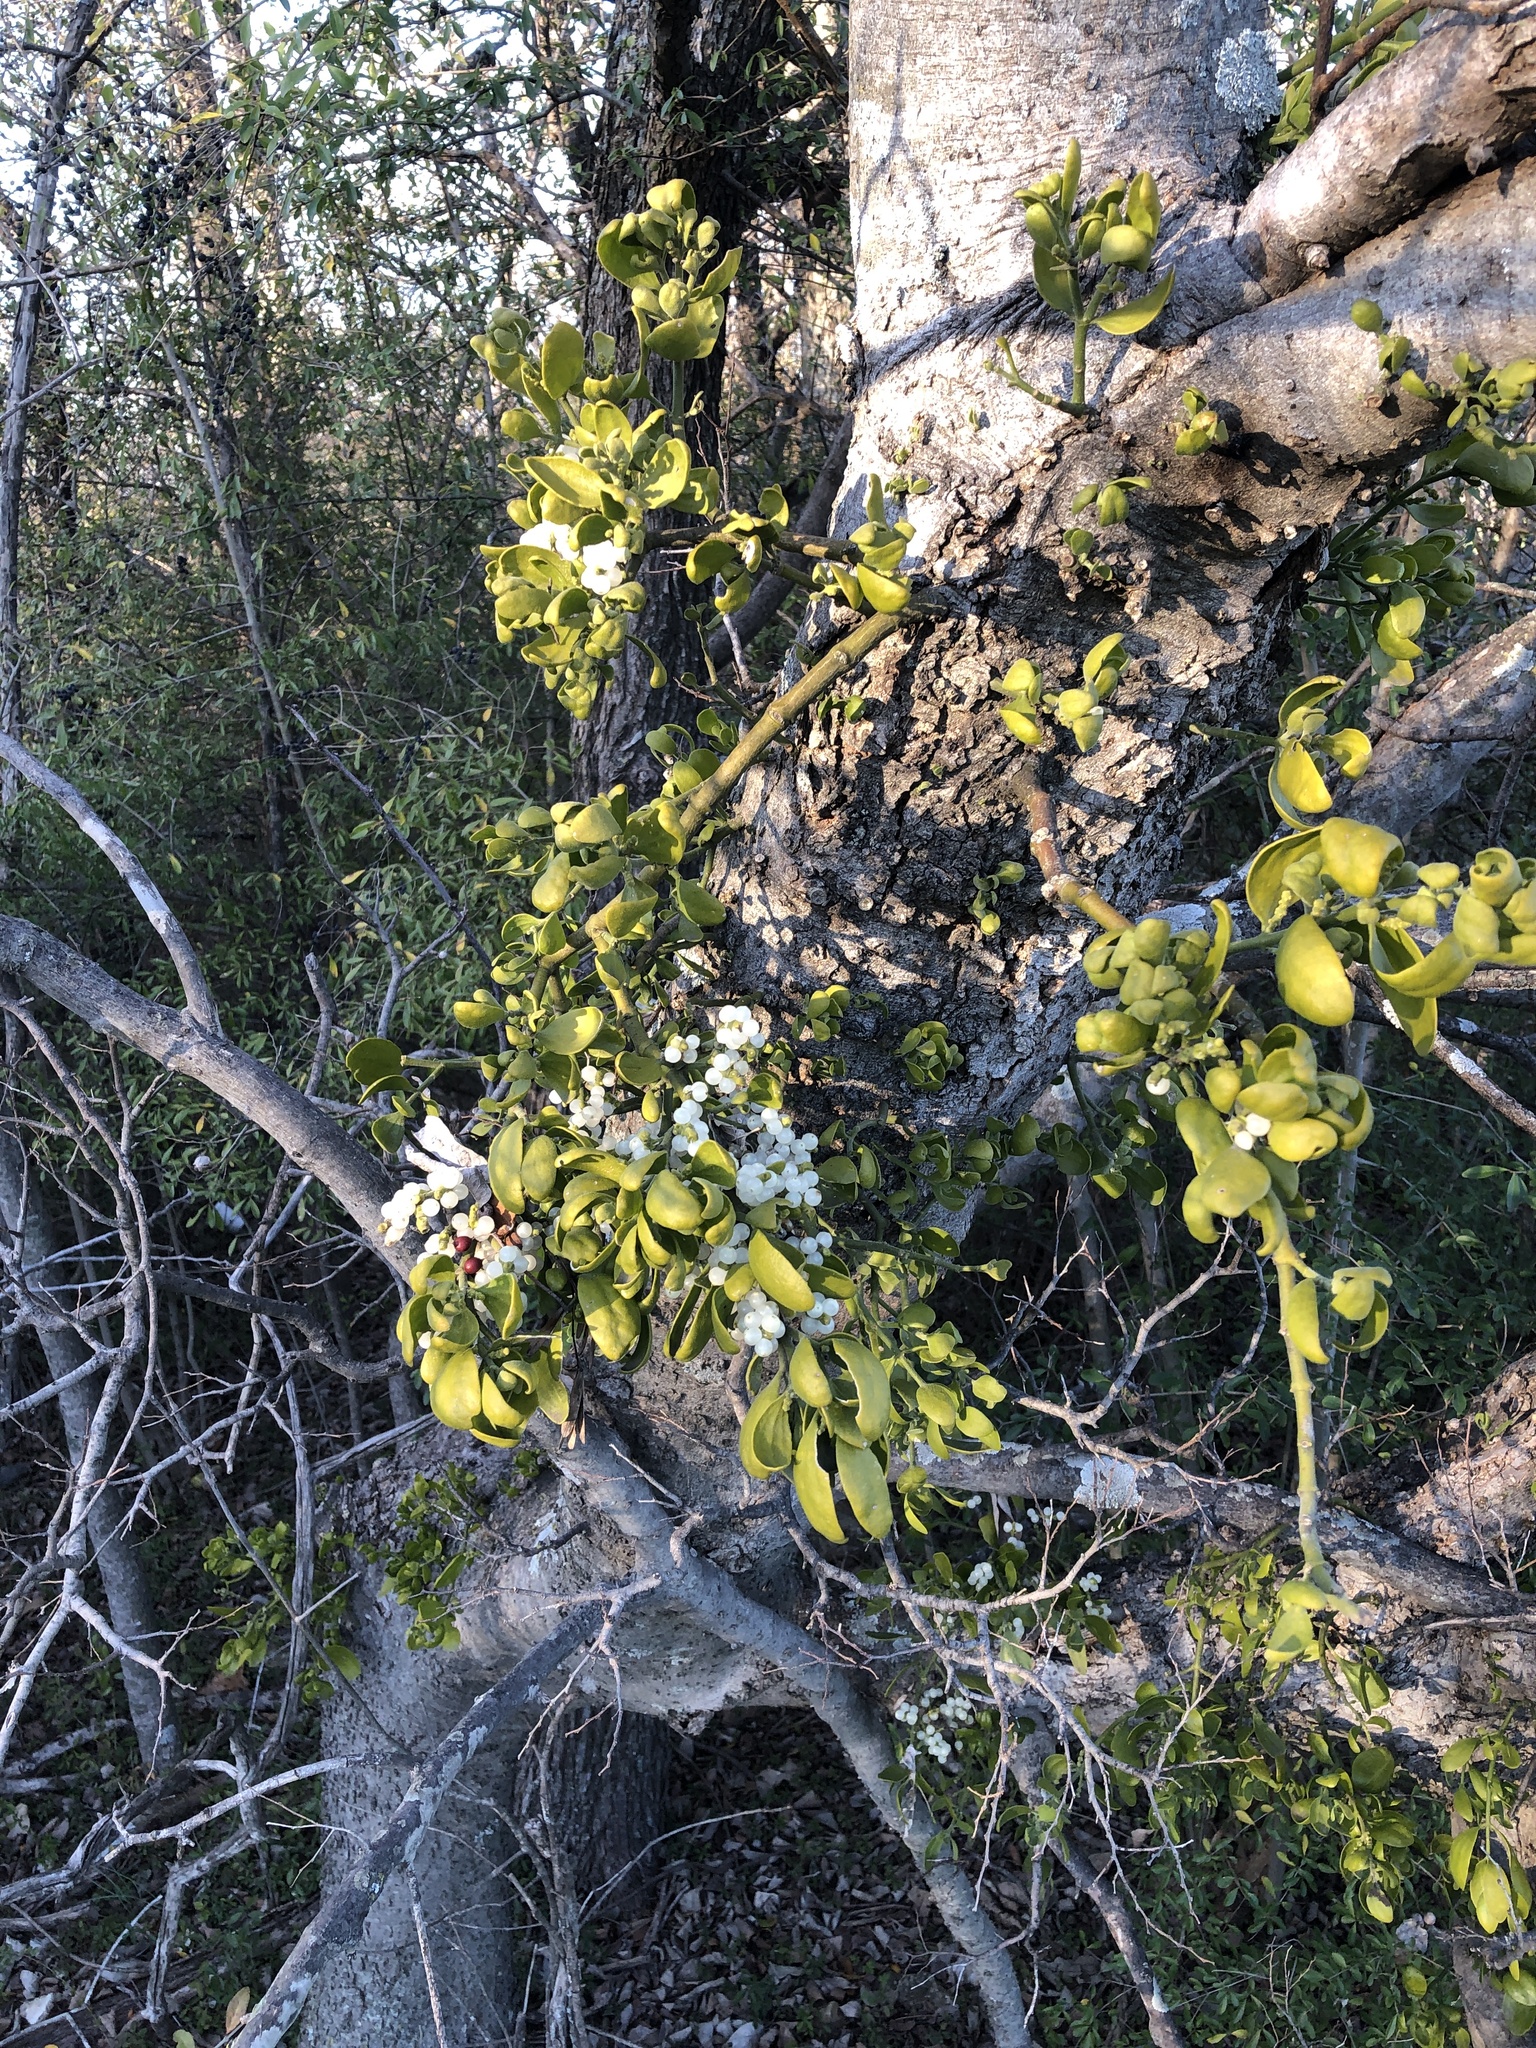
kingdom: Plantae
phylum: Tracheophyta
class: Magnoliopsida
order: Santalales
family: Viscaceae
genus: Phoradendron
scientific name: Phoradendron leucarpum
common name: Pacific mistletoe
